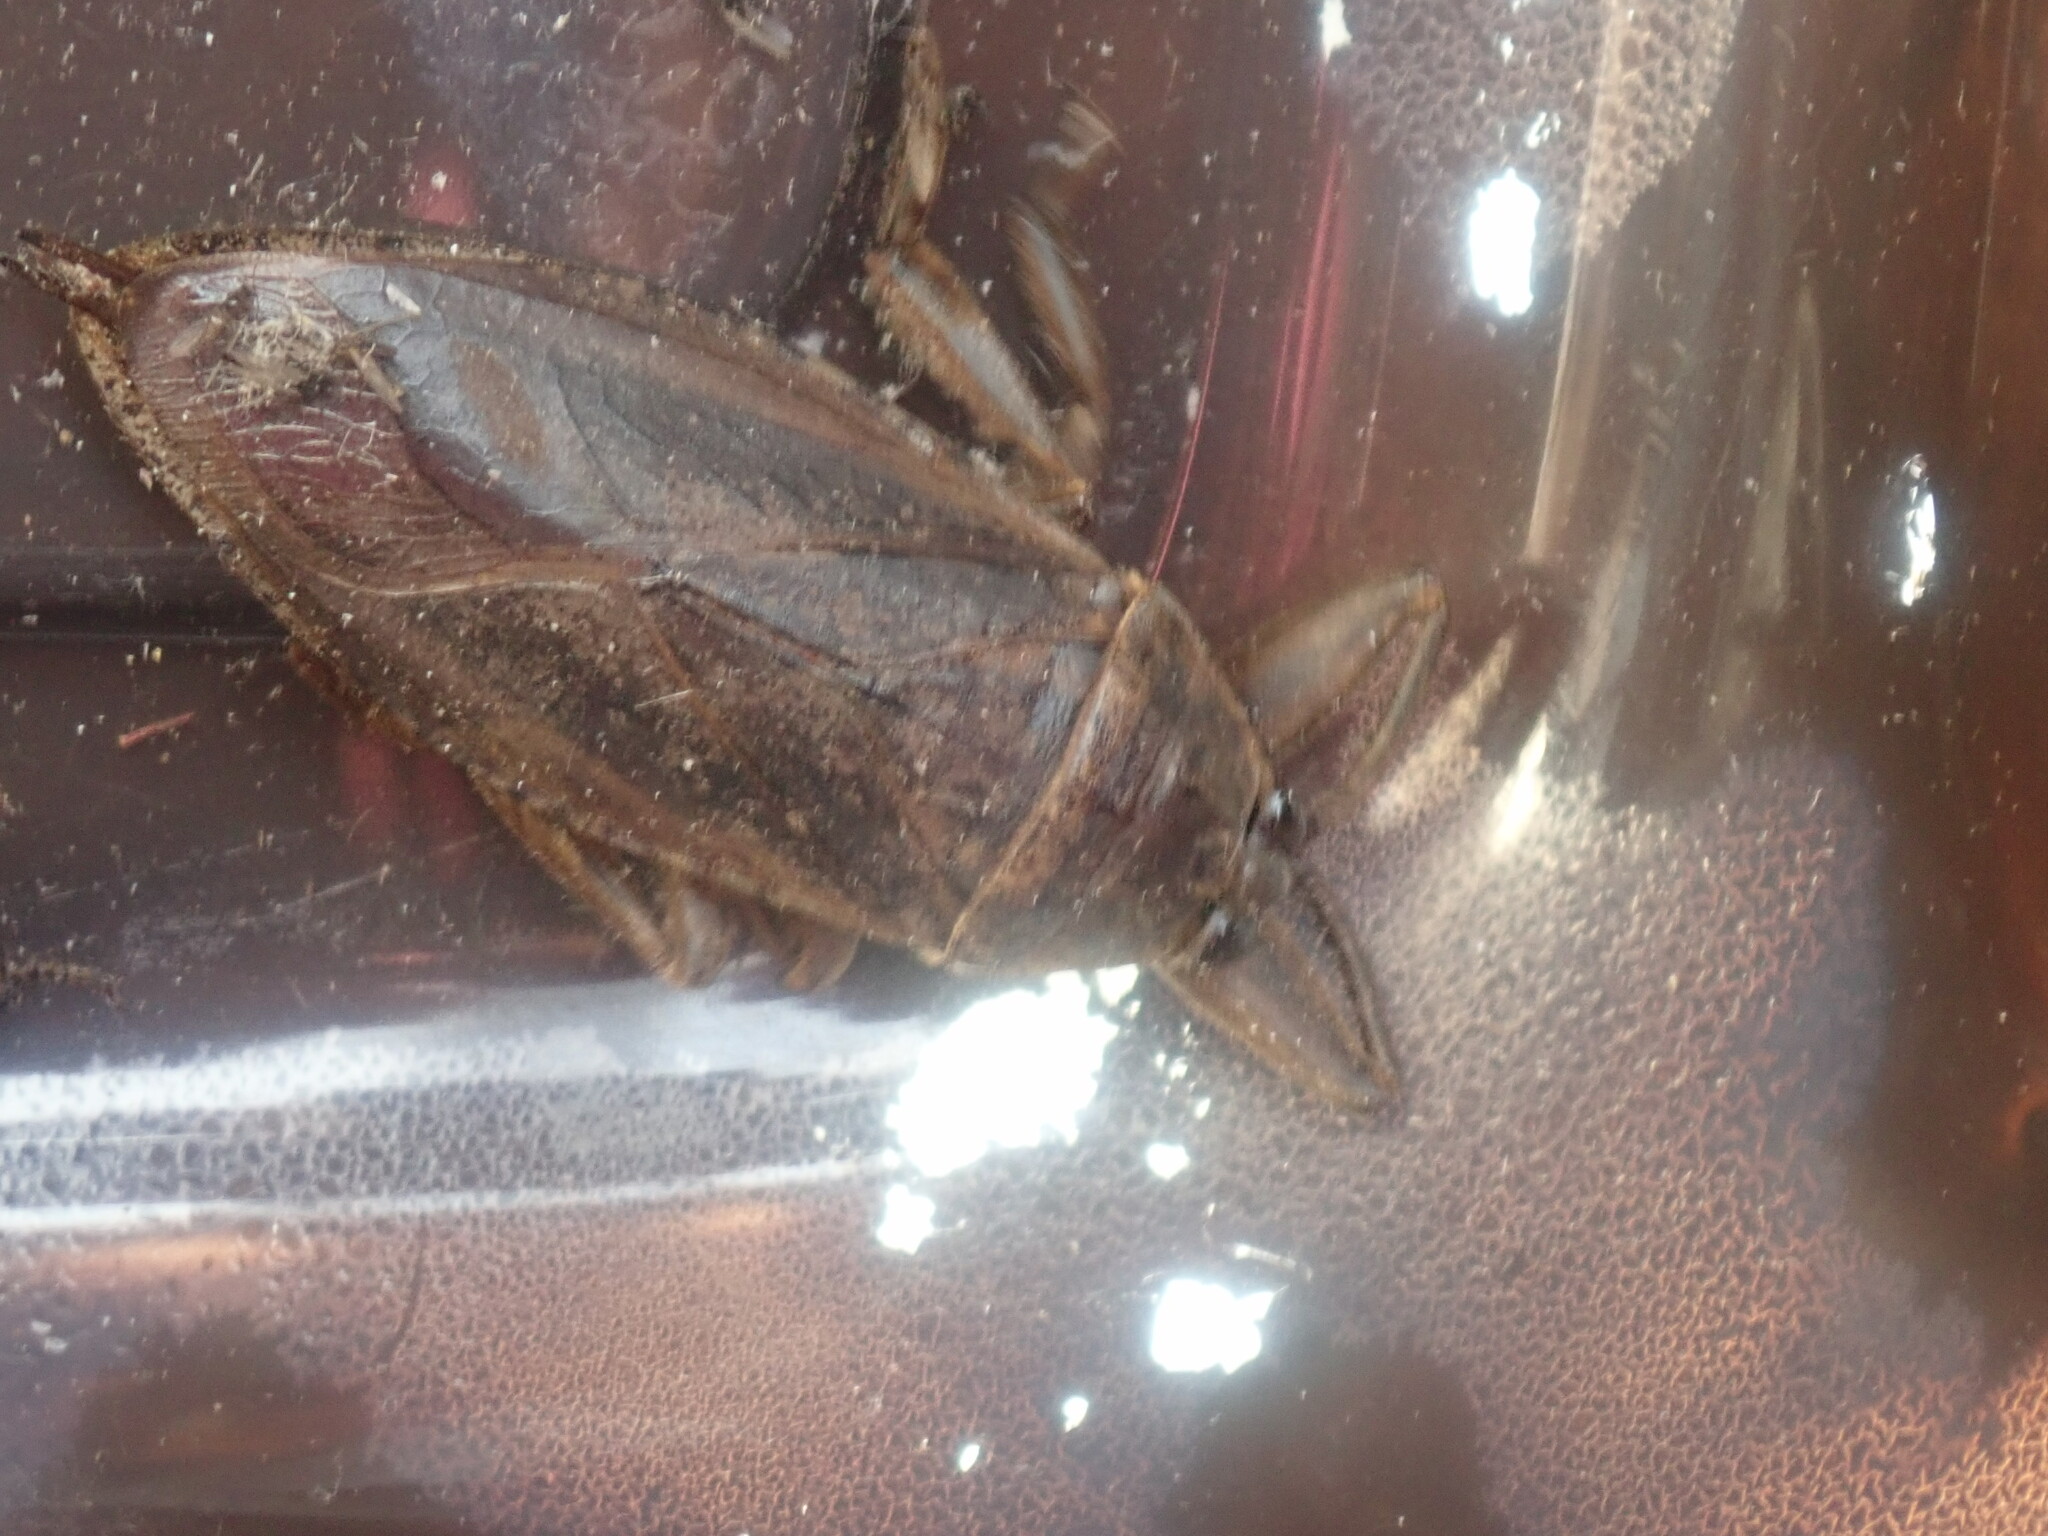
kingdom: Animalia
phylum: Arthropoda
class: Insecta
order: Hemiptera
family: Belostomatidae
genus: Lethocerus
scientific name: Lethocerus americanus
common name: Giant water bug
